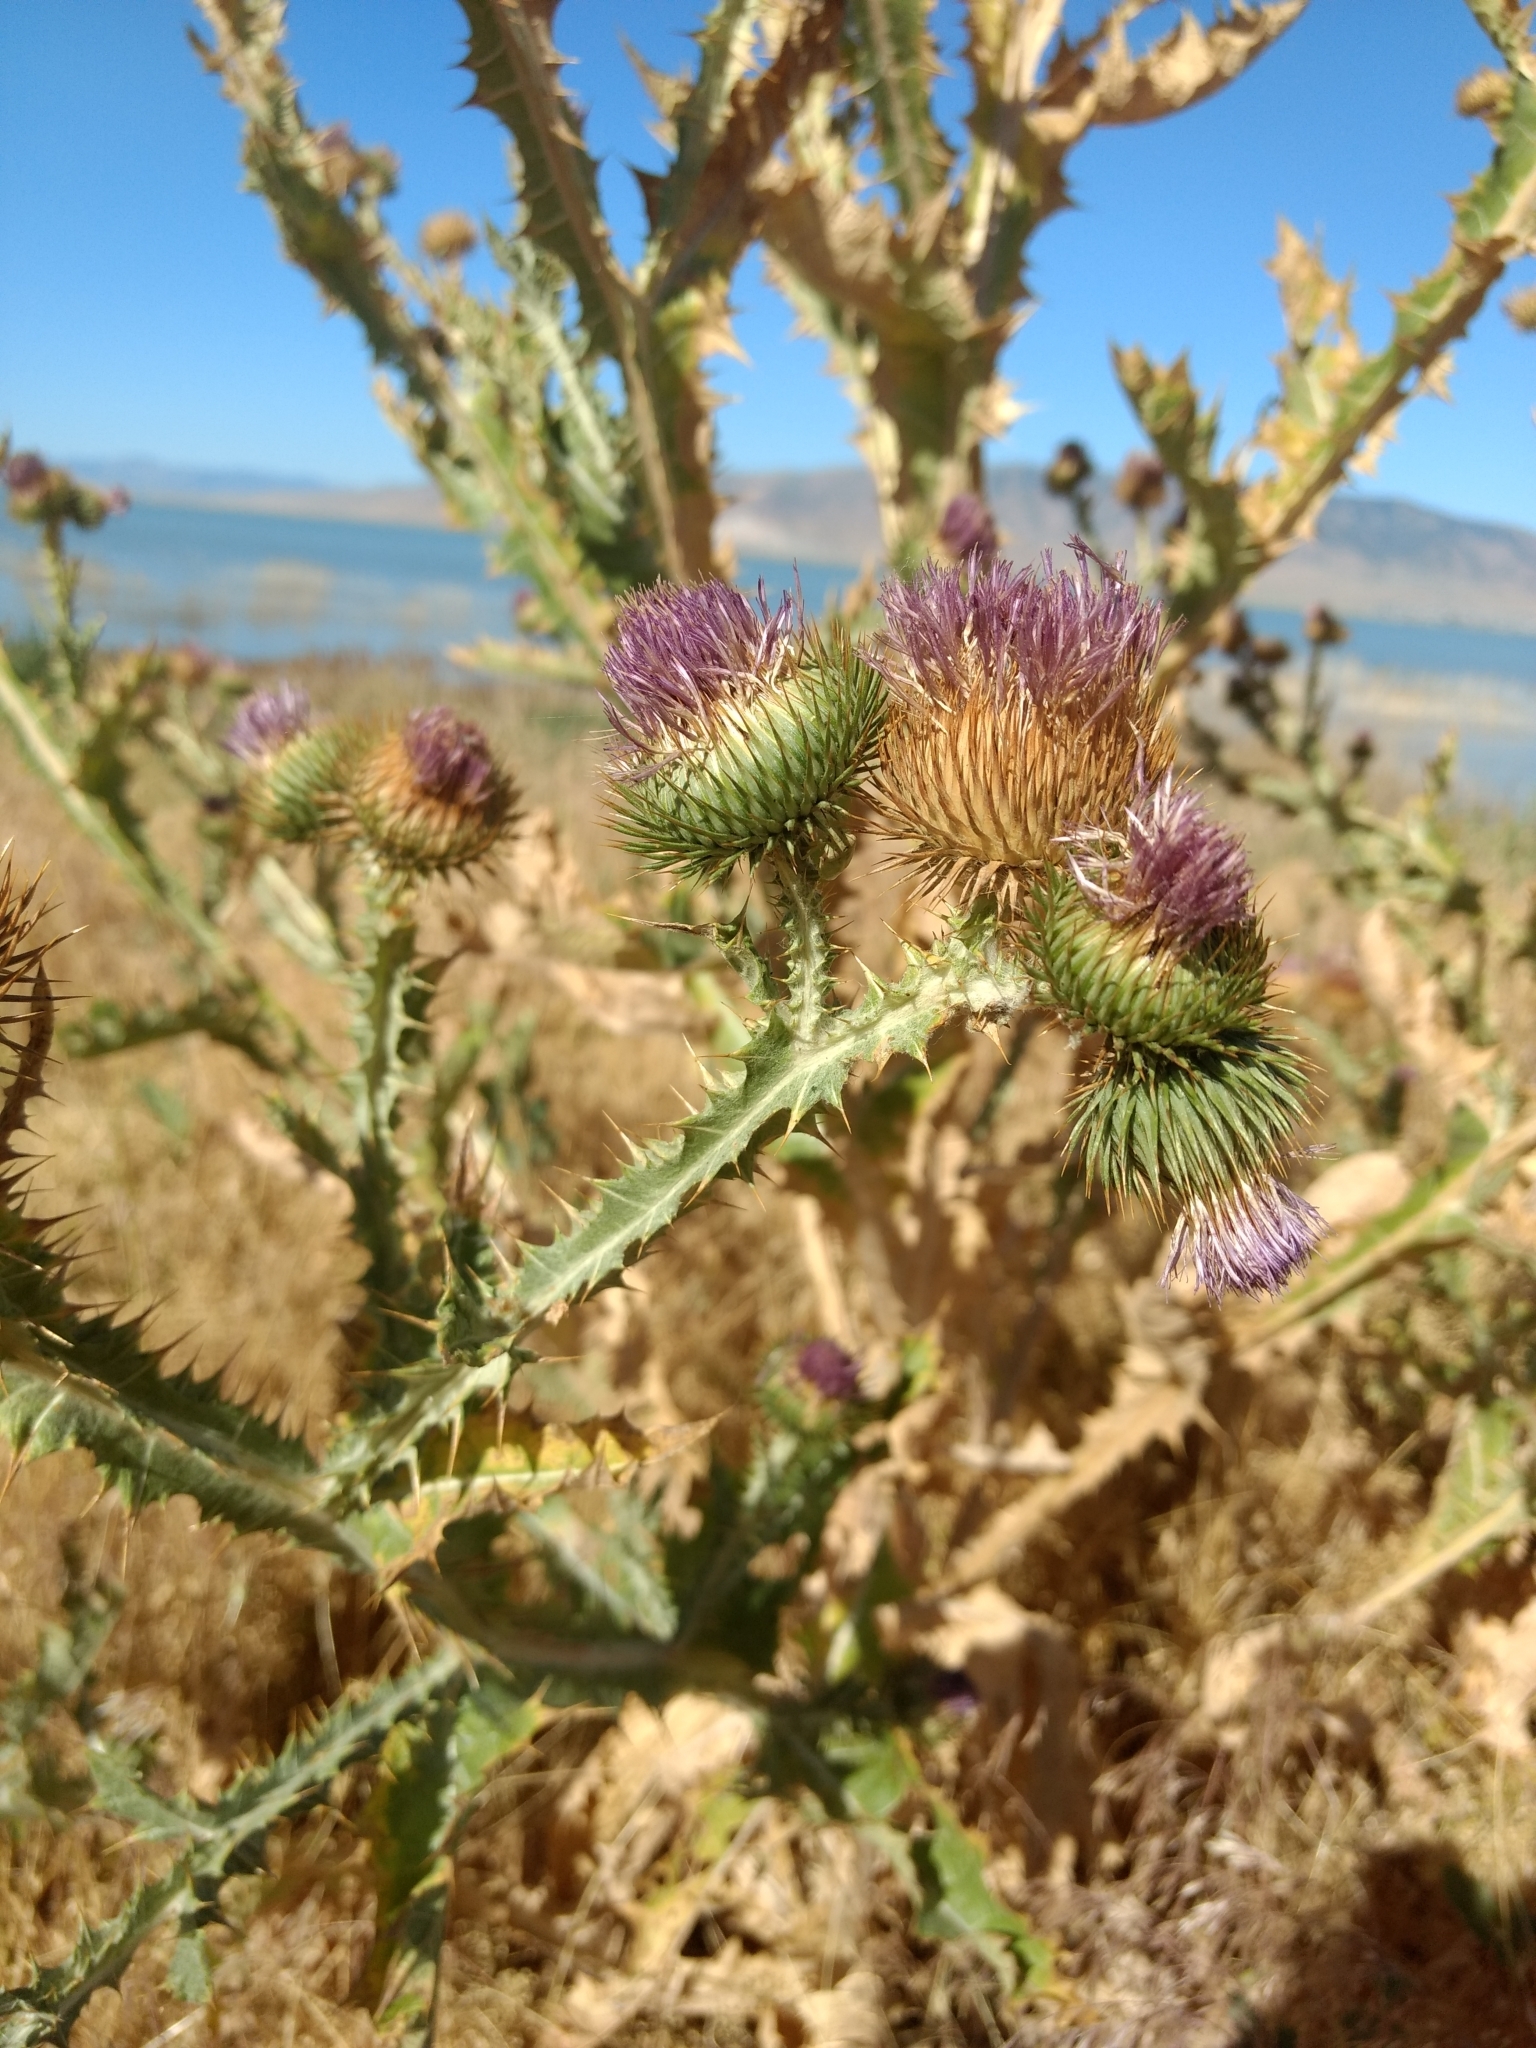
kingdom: Plantae
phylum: Tracheophyta
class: Magnoliopsida
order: Asterales
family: Asteraceae
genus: Onopordum
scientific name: Onopordum acanthium
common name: Scotch thistle
